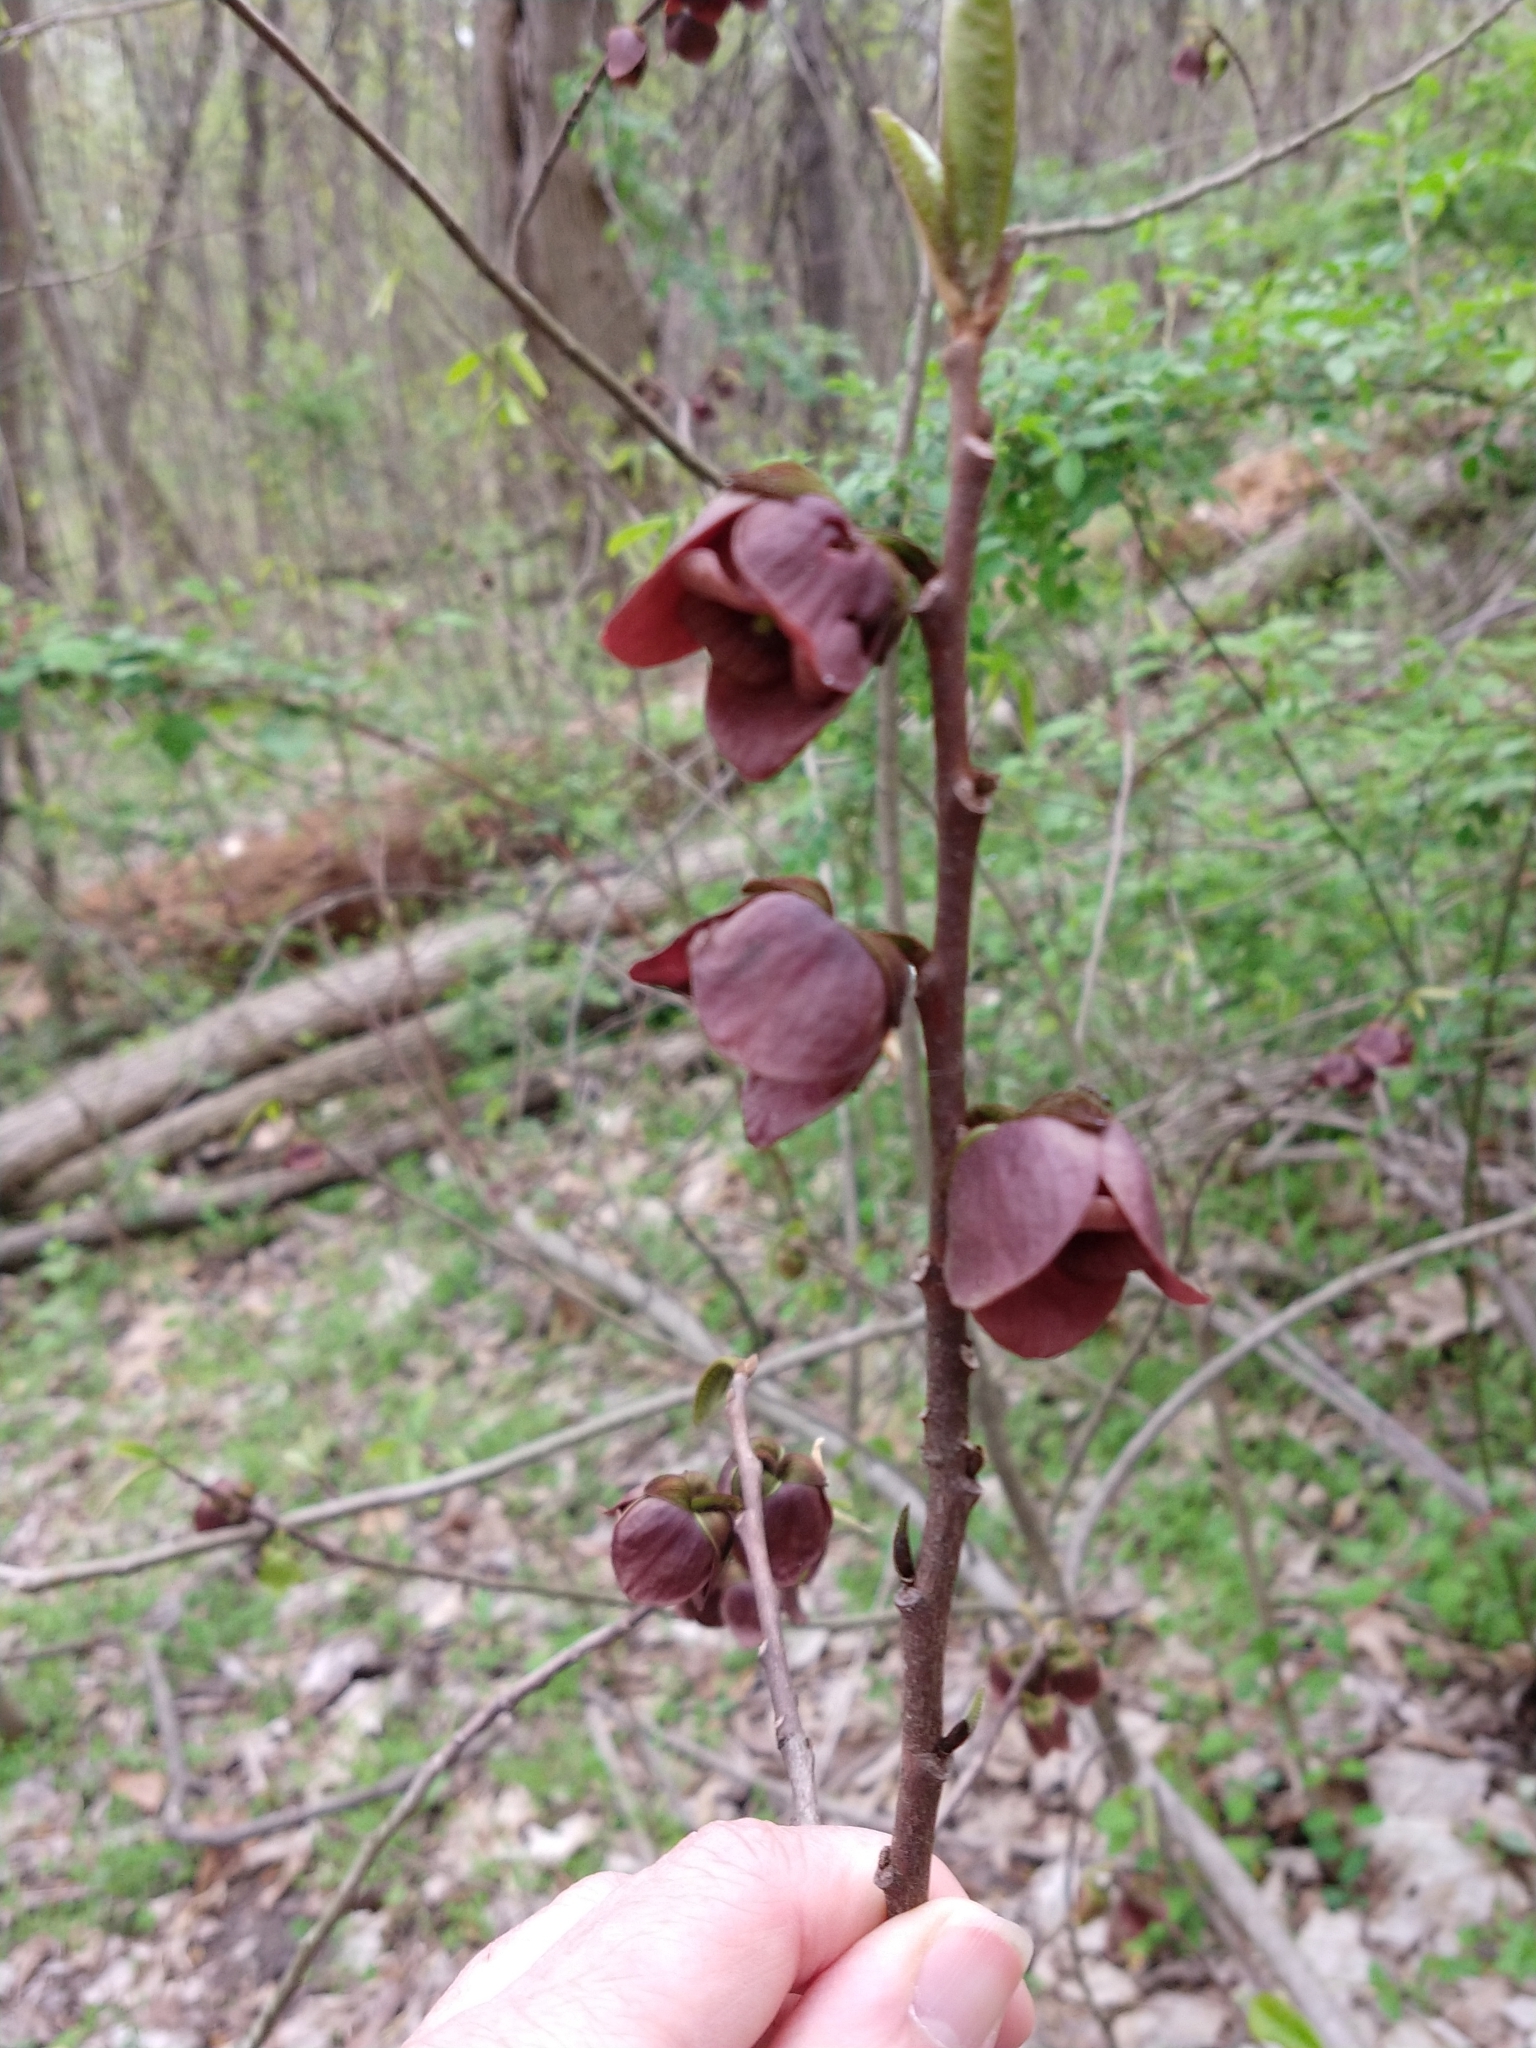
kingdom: Plantae
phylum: Tracheophyta
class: Magnoliopsida
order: Magnoliales
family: Annonaceae
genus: Asimina
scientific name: Asimina triloba
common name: Dog-banana
